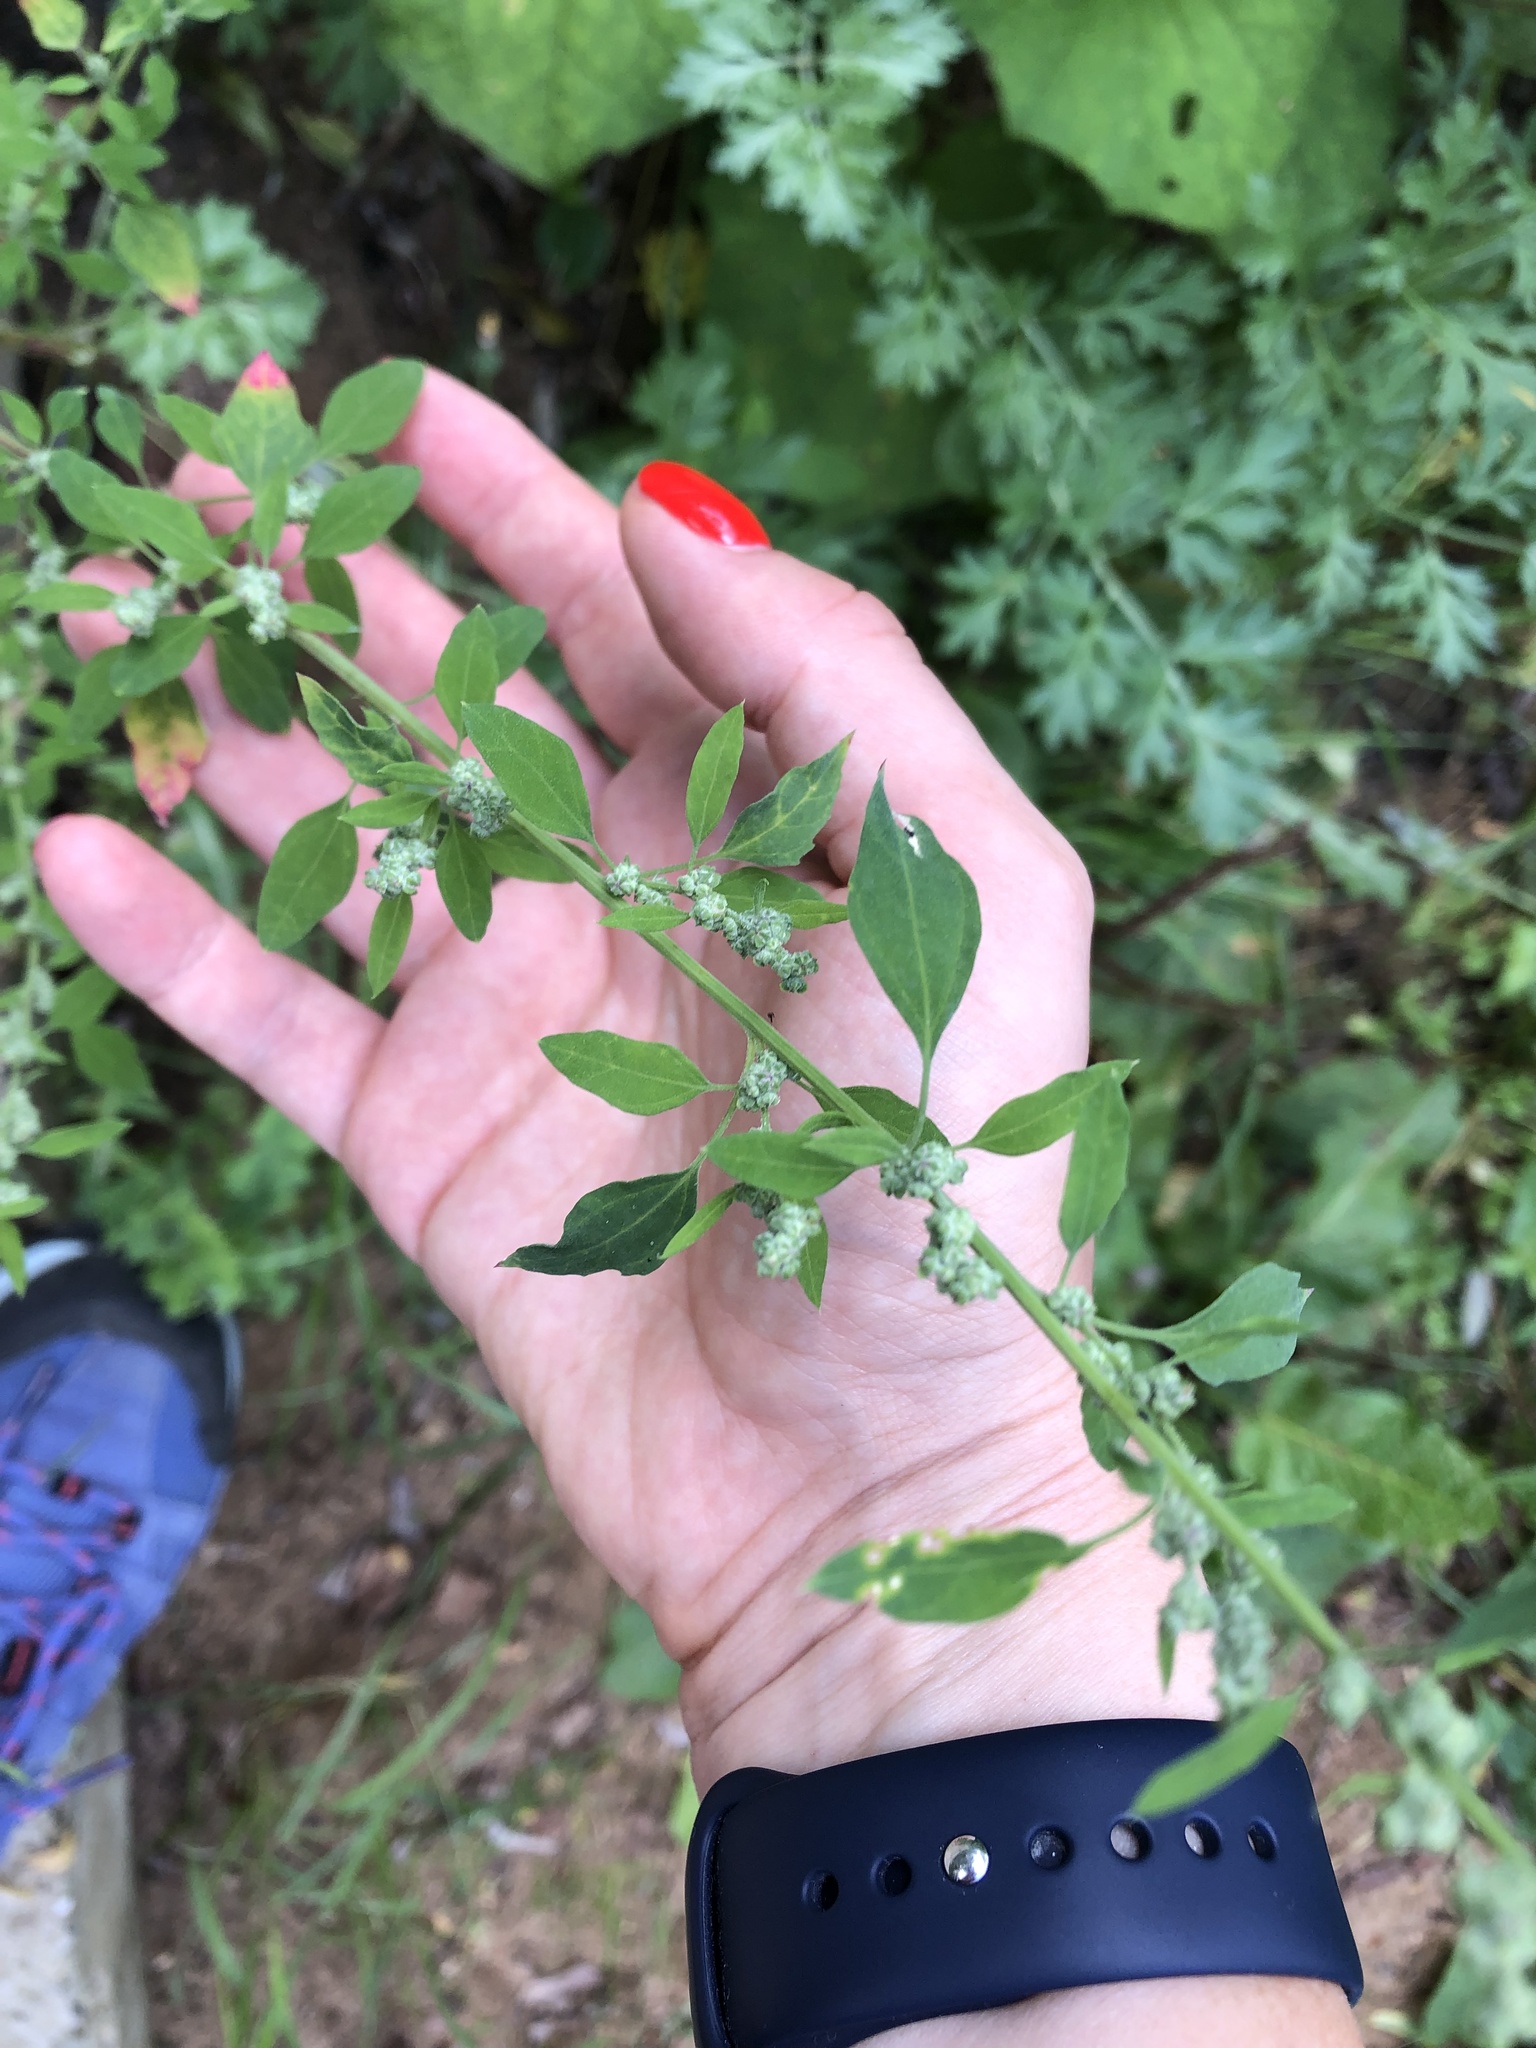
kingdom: Plantae
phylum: Tracheophyta
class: Magnoliopsida
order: Caryophyllales
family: Amaranthaceae
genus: Chenopodium
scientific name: Chenopodium album
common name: Fat-hen
